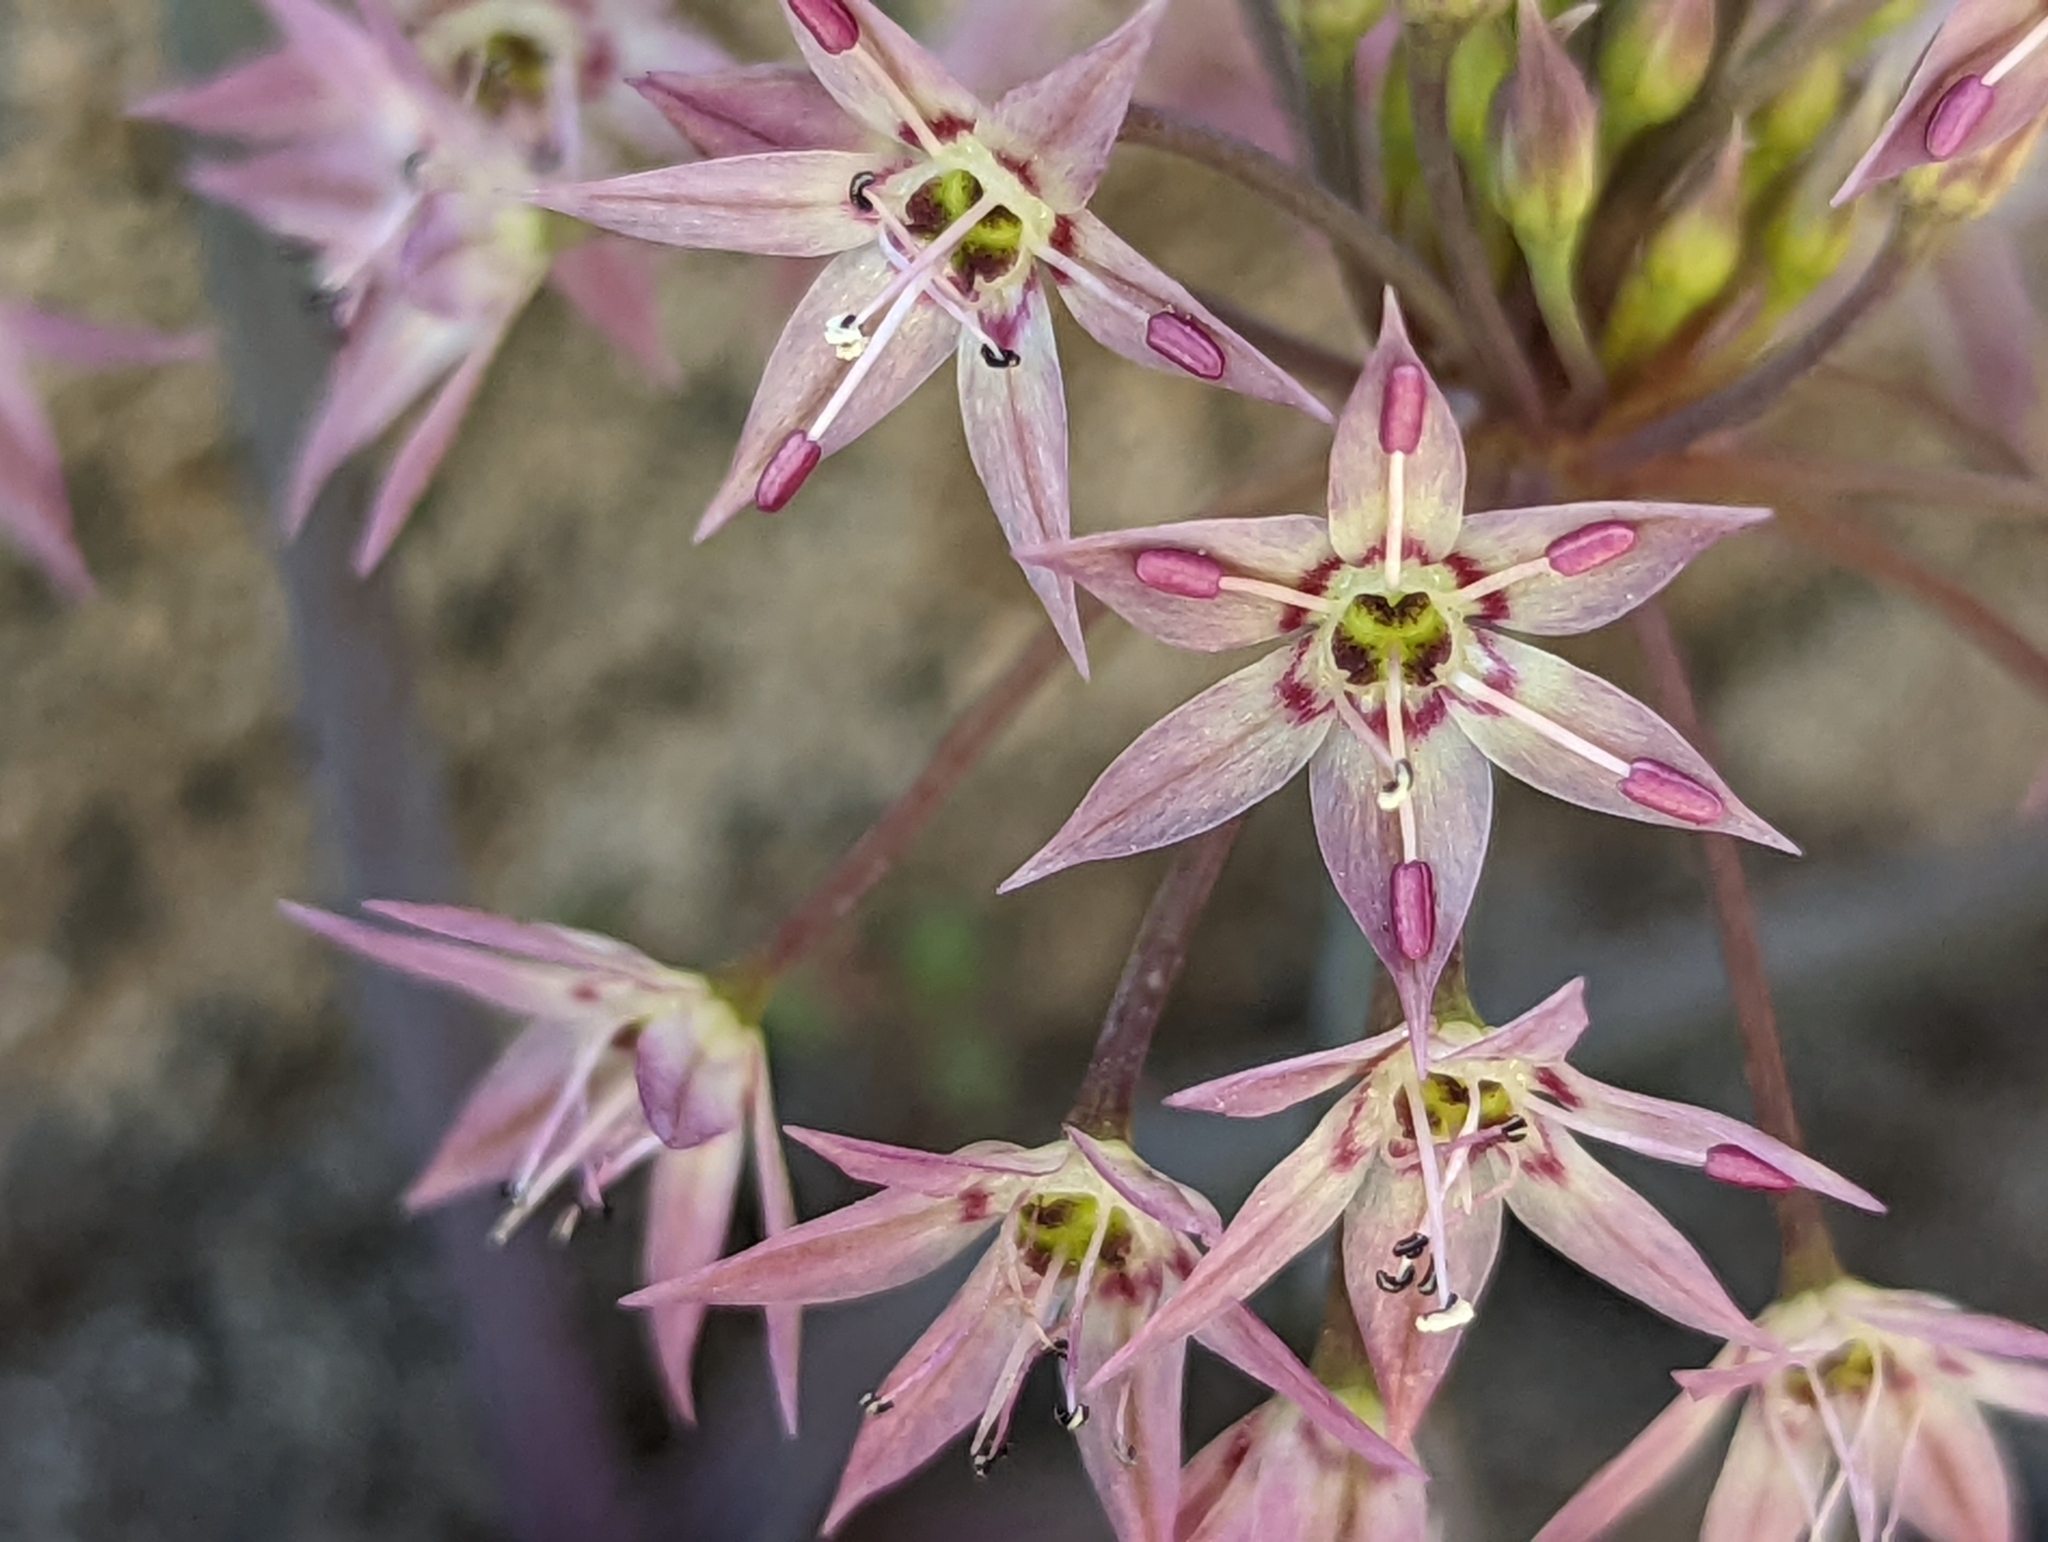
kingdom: Plantae
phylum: Tracheophyta
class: Liliopsida
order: Asparagales
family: Amaryllidaceae
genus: Allium
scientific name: Allium campanulatum
